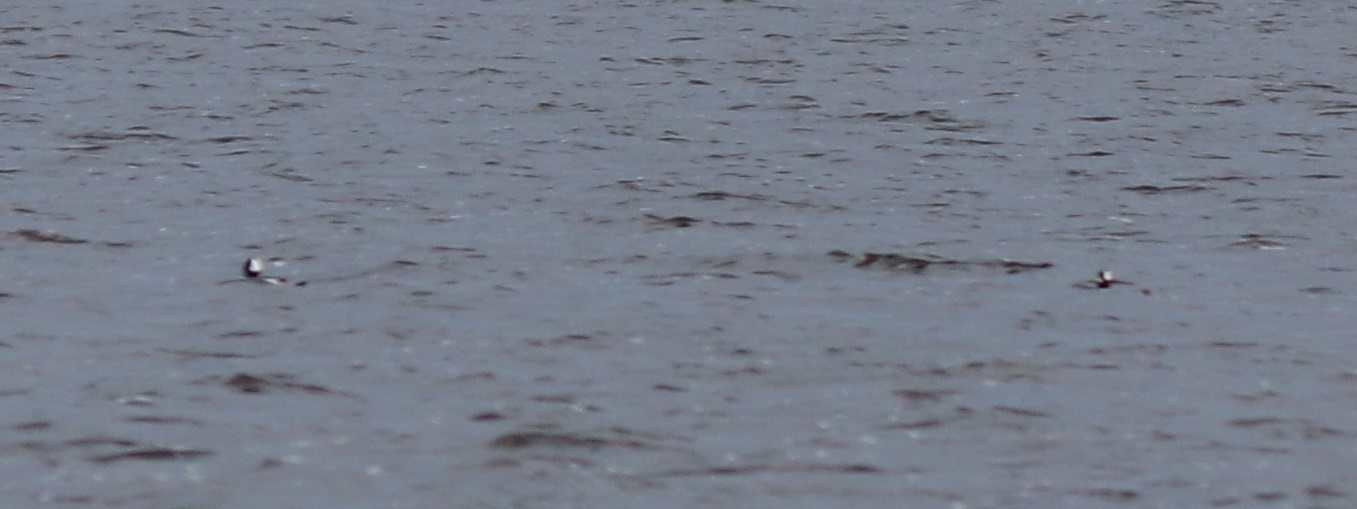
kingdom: Animalia
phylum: Chordata
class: Aves
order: Anseriformes
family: Anatidae
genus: Bucephala
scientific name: Bucephala albeola
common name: Bufflehead
